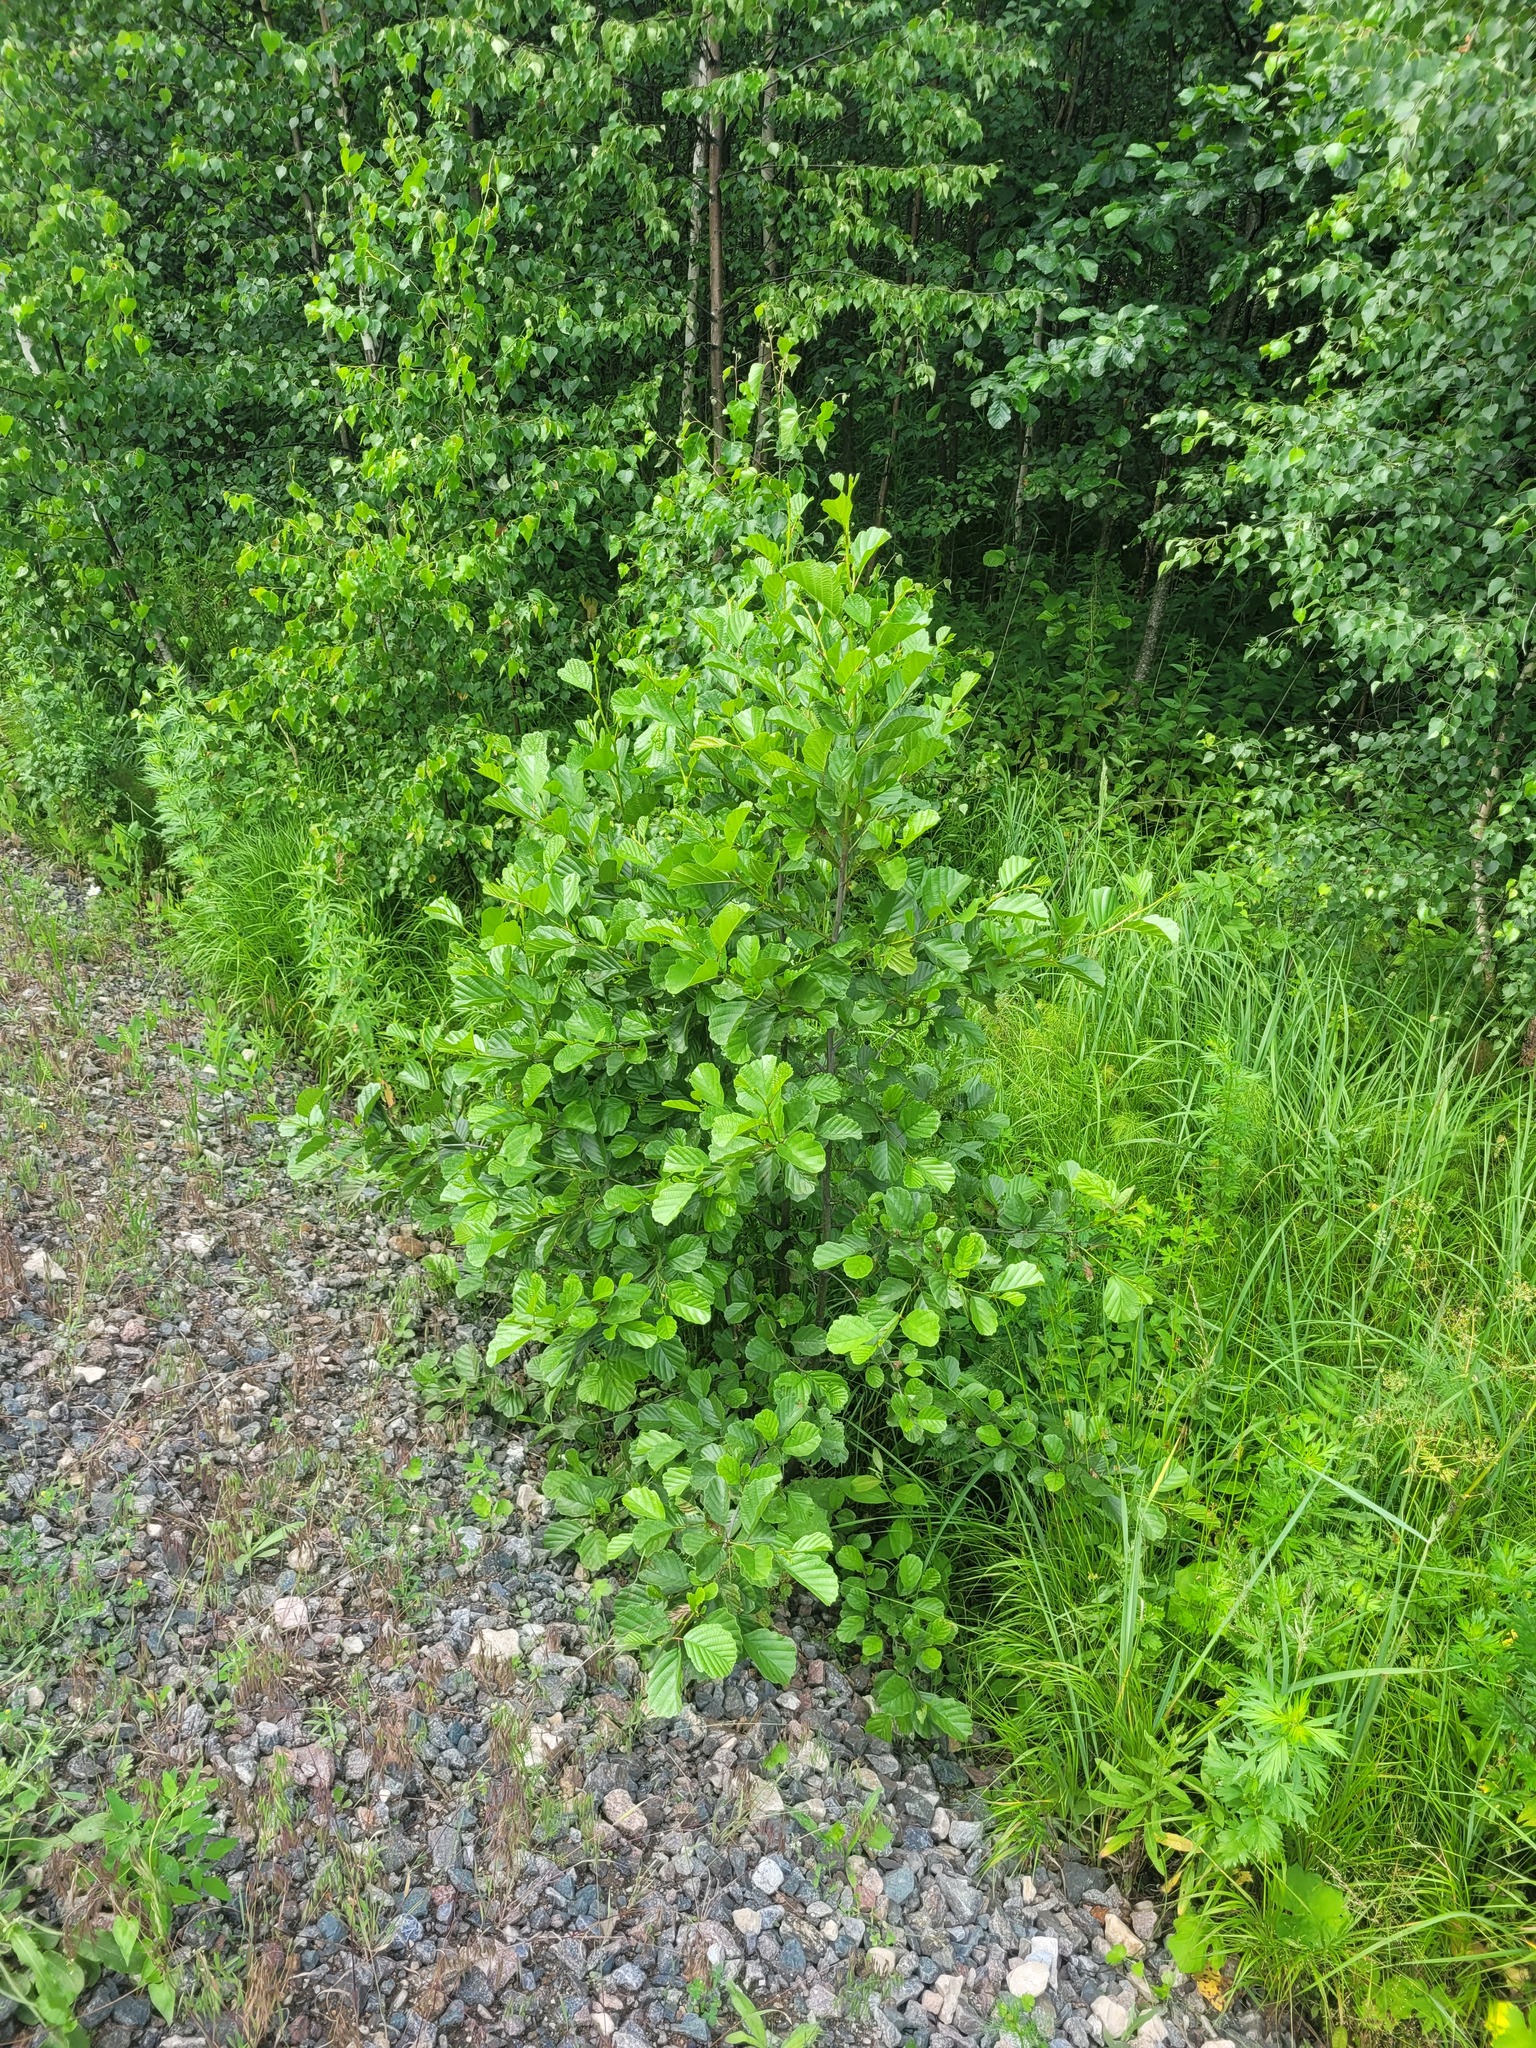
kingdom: Plantae
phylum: Tracheophyta
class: Magnoliopsida
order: Fagales
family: Betulaceae
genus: Alnus
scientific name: Alnus glutinosa
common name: Black alder
